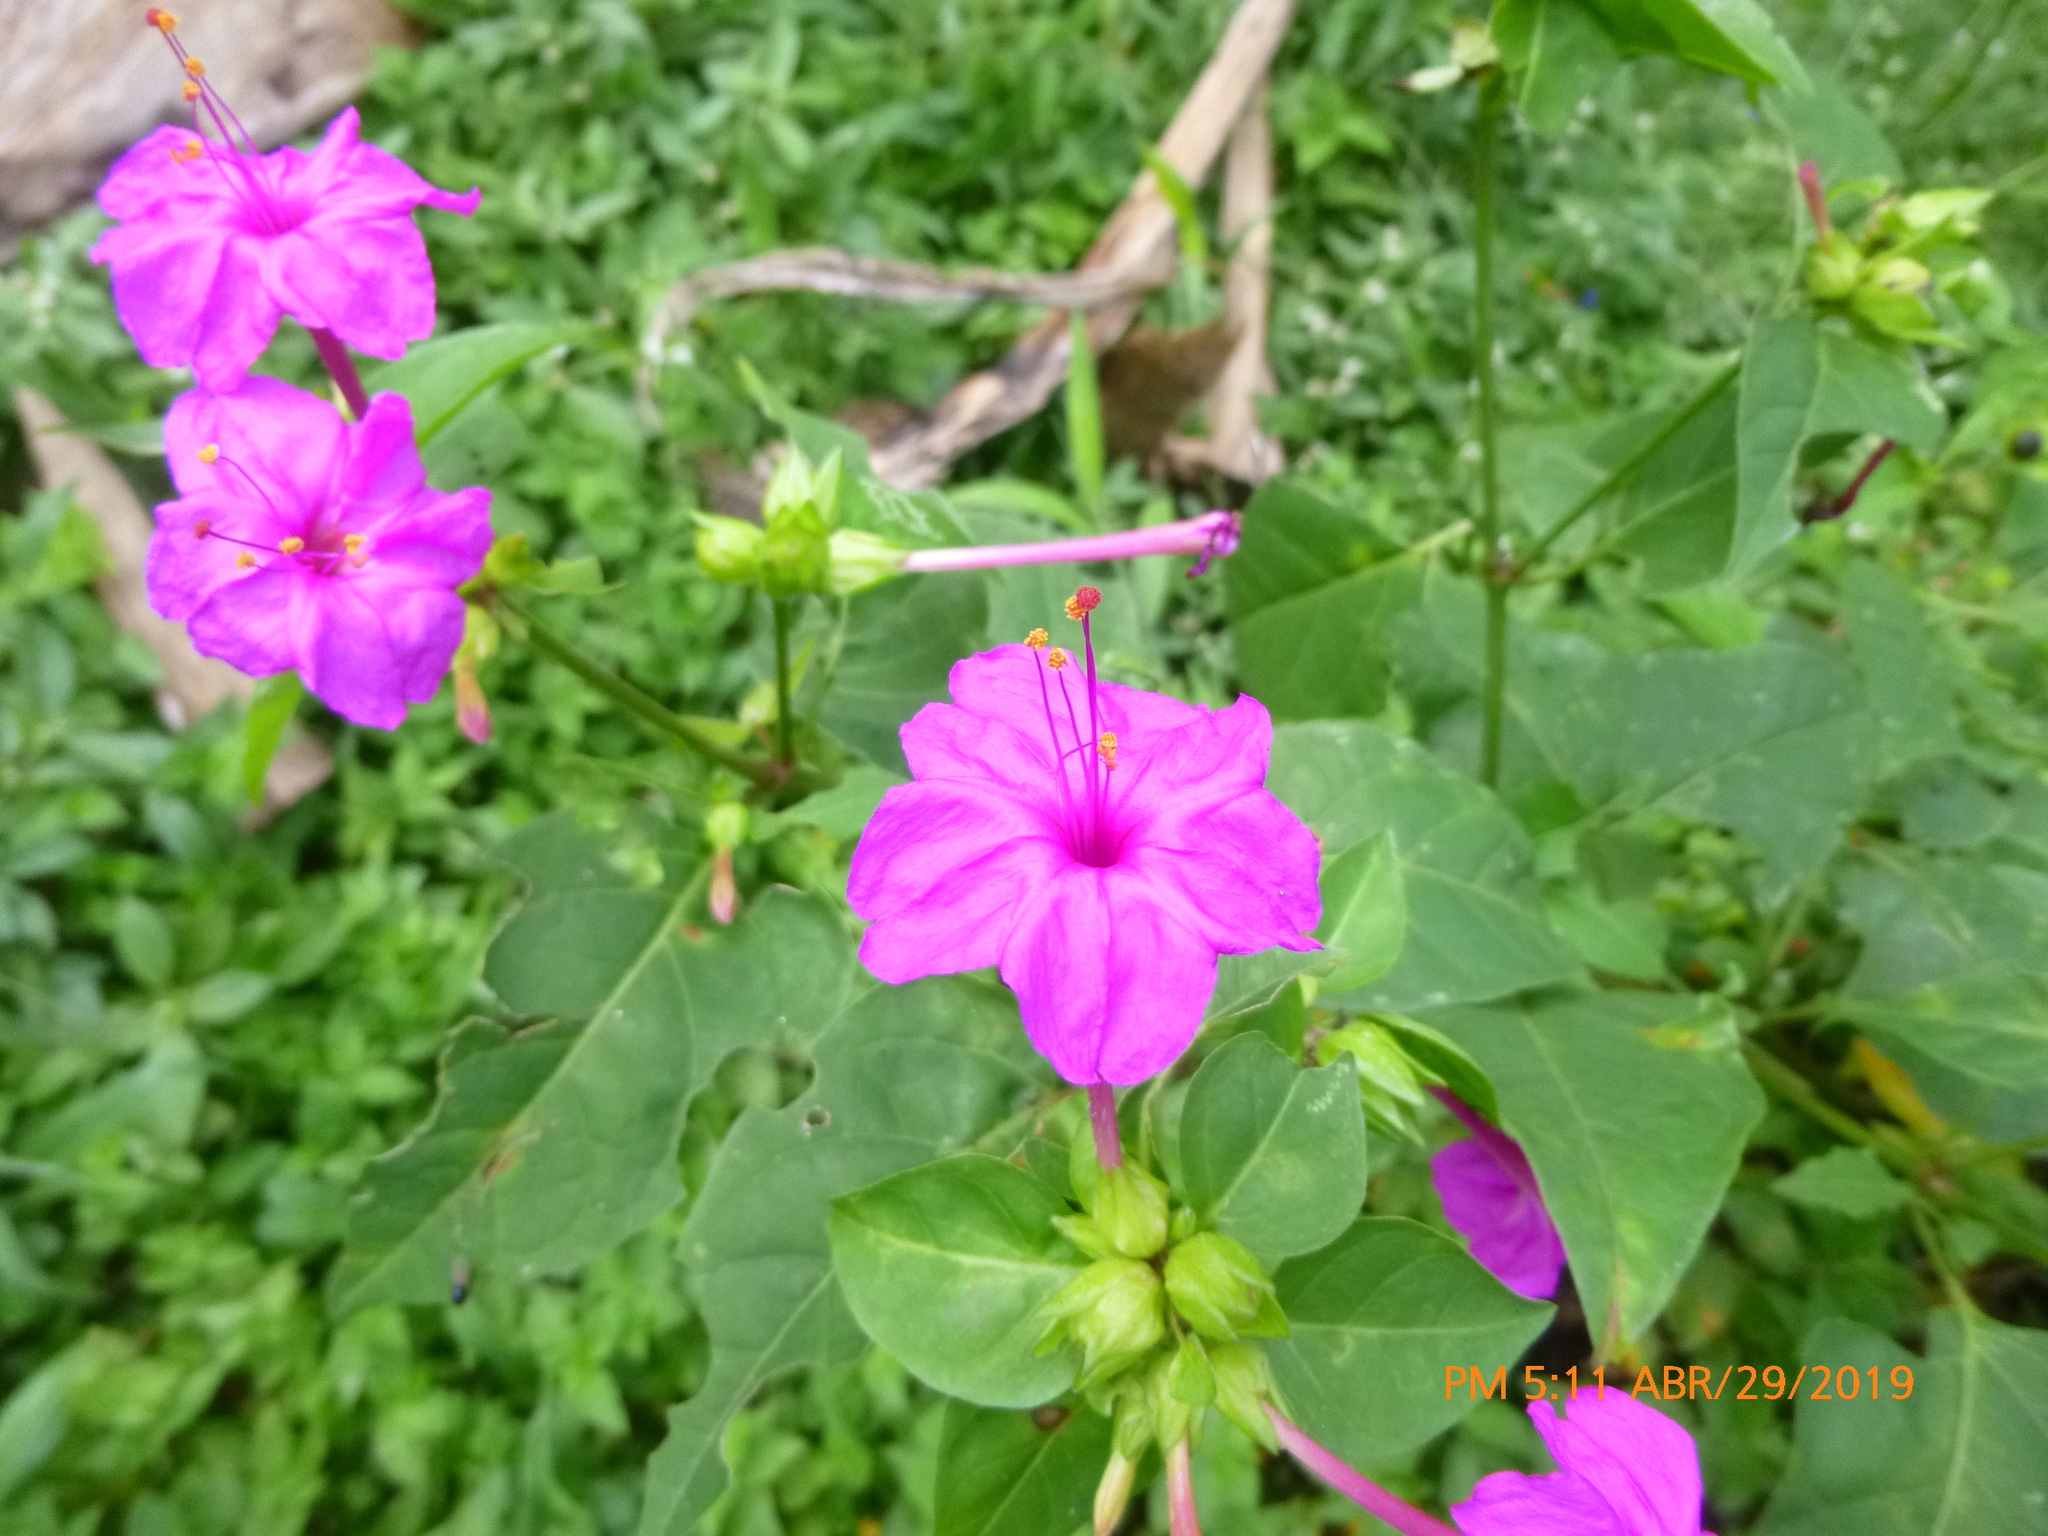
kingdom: Plantae
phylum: Tracheophyta
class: Magnoliopsida
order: Caryophyllales
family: Nyctaginaceae
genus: Mirabilis
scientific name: Mirabilis jalapa
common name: Marvel-of-peru
